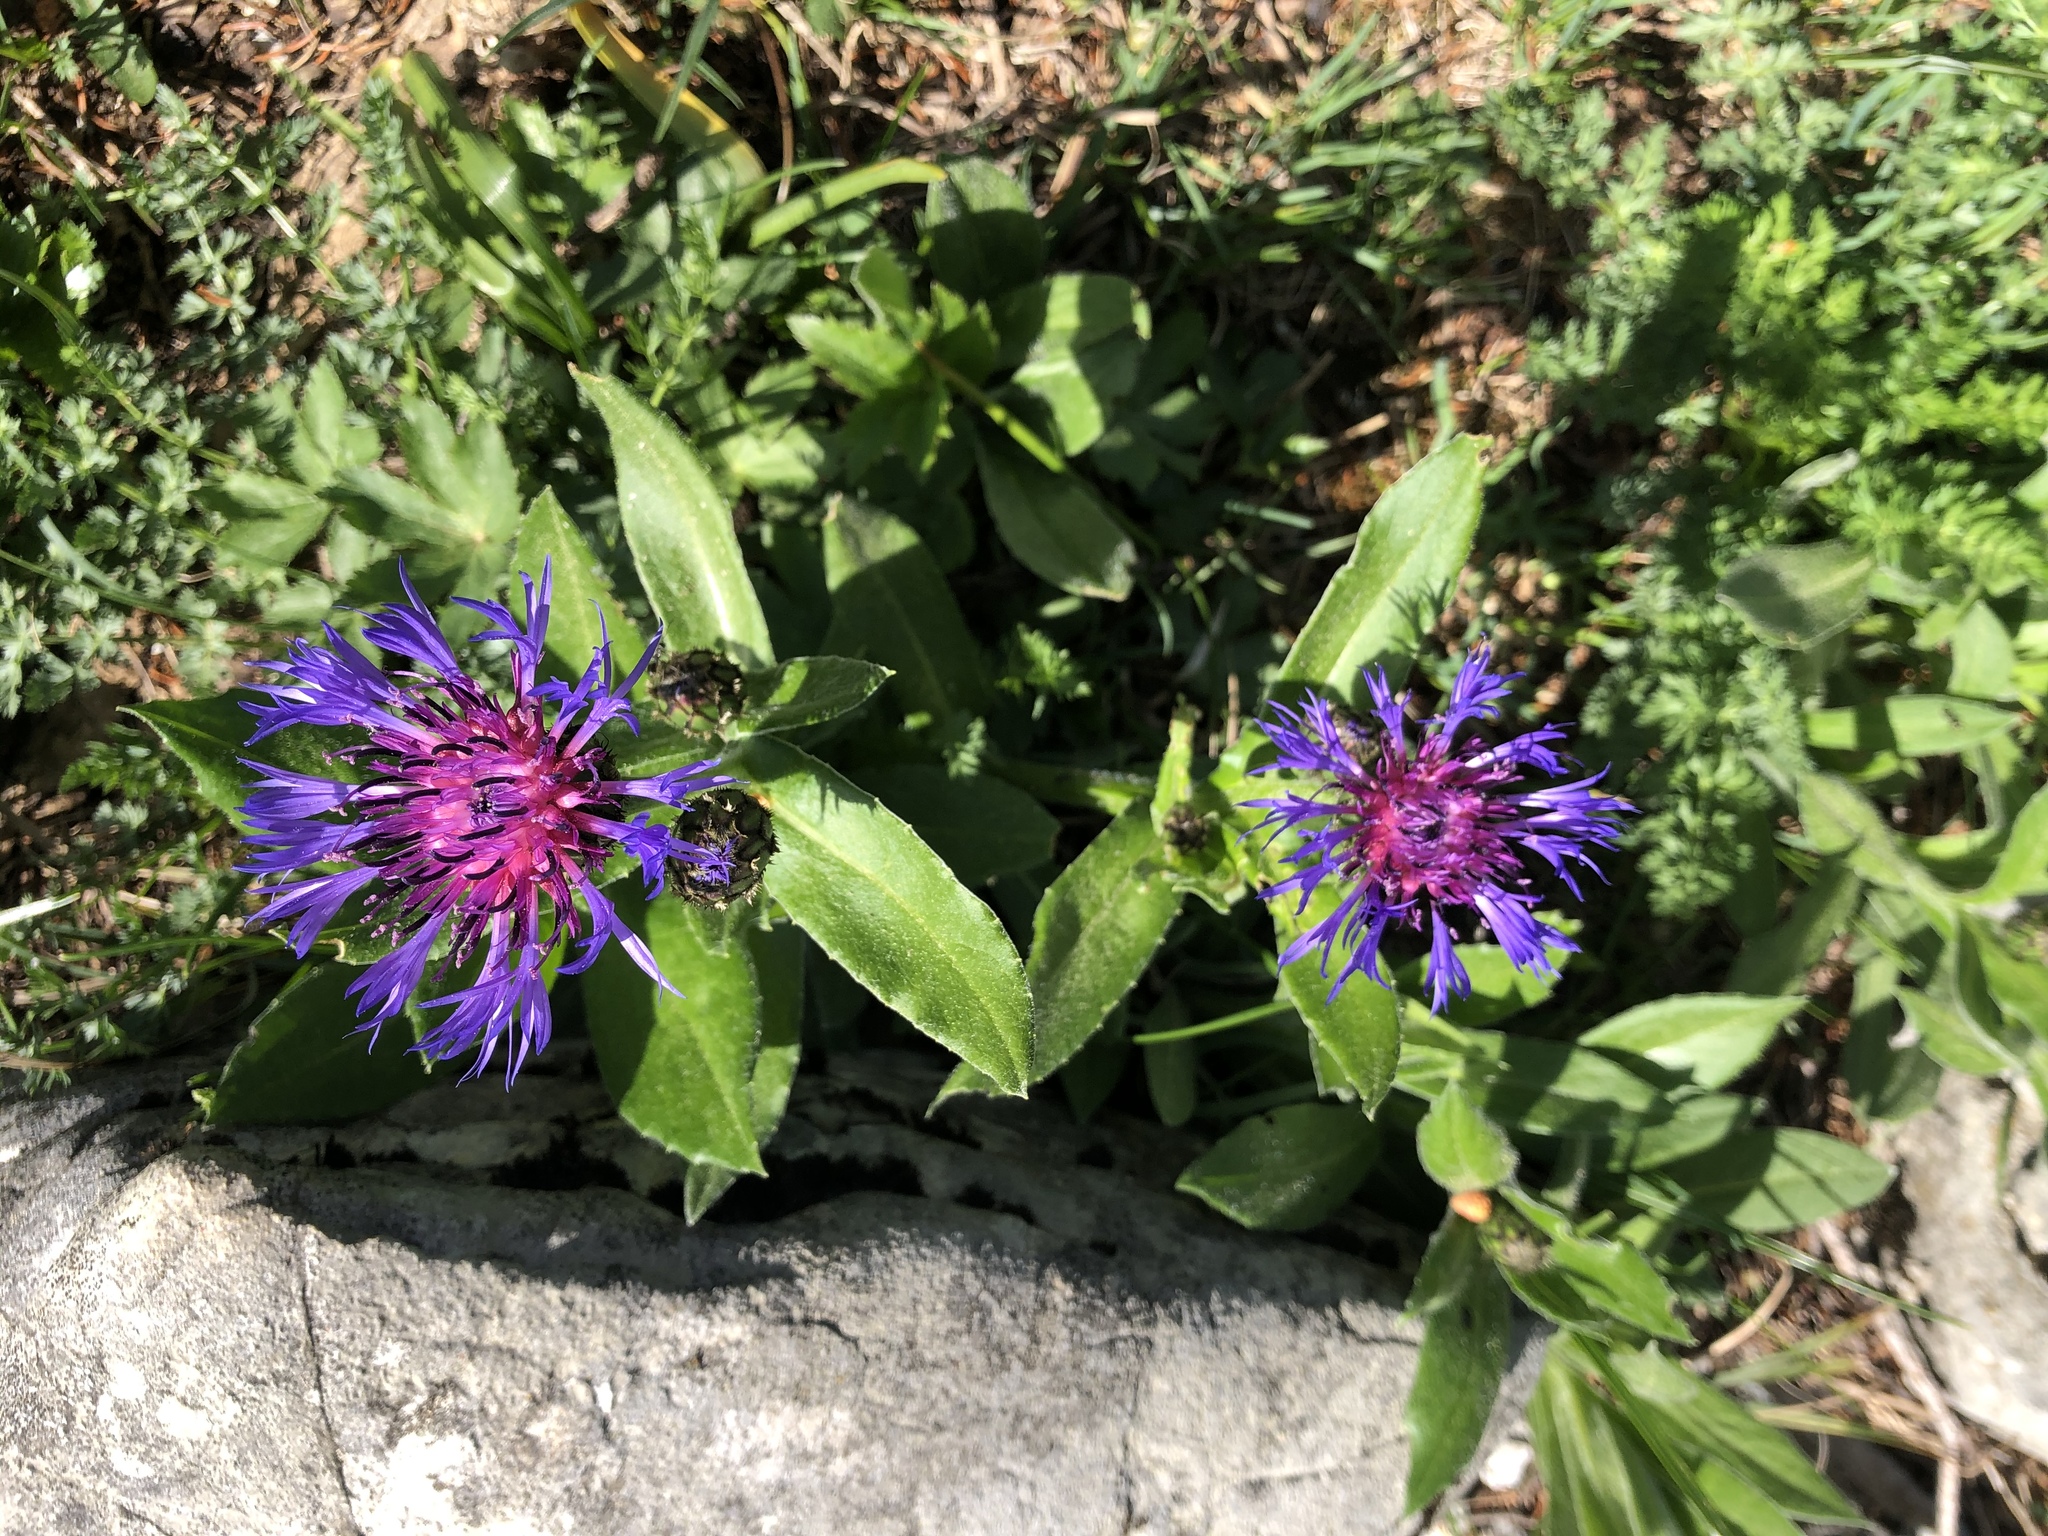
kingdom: Plantae
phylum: Tracheophyta
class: Magnoliopsida
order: Asterales
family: Asteraceae
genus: Centaurea
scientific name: Centaurea montana
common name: Perennial cornflower
